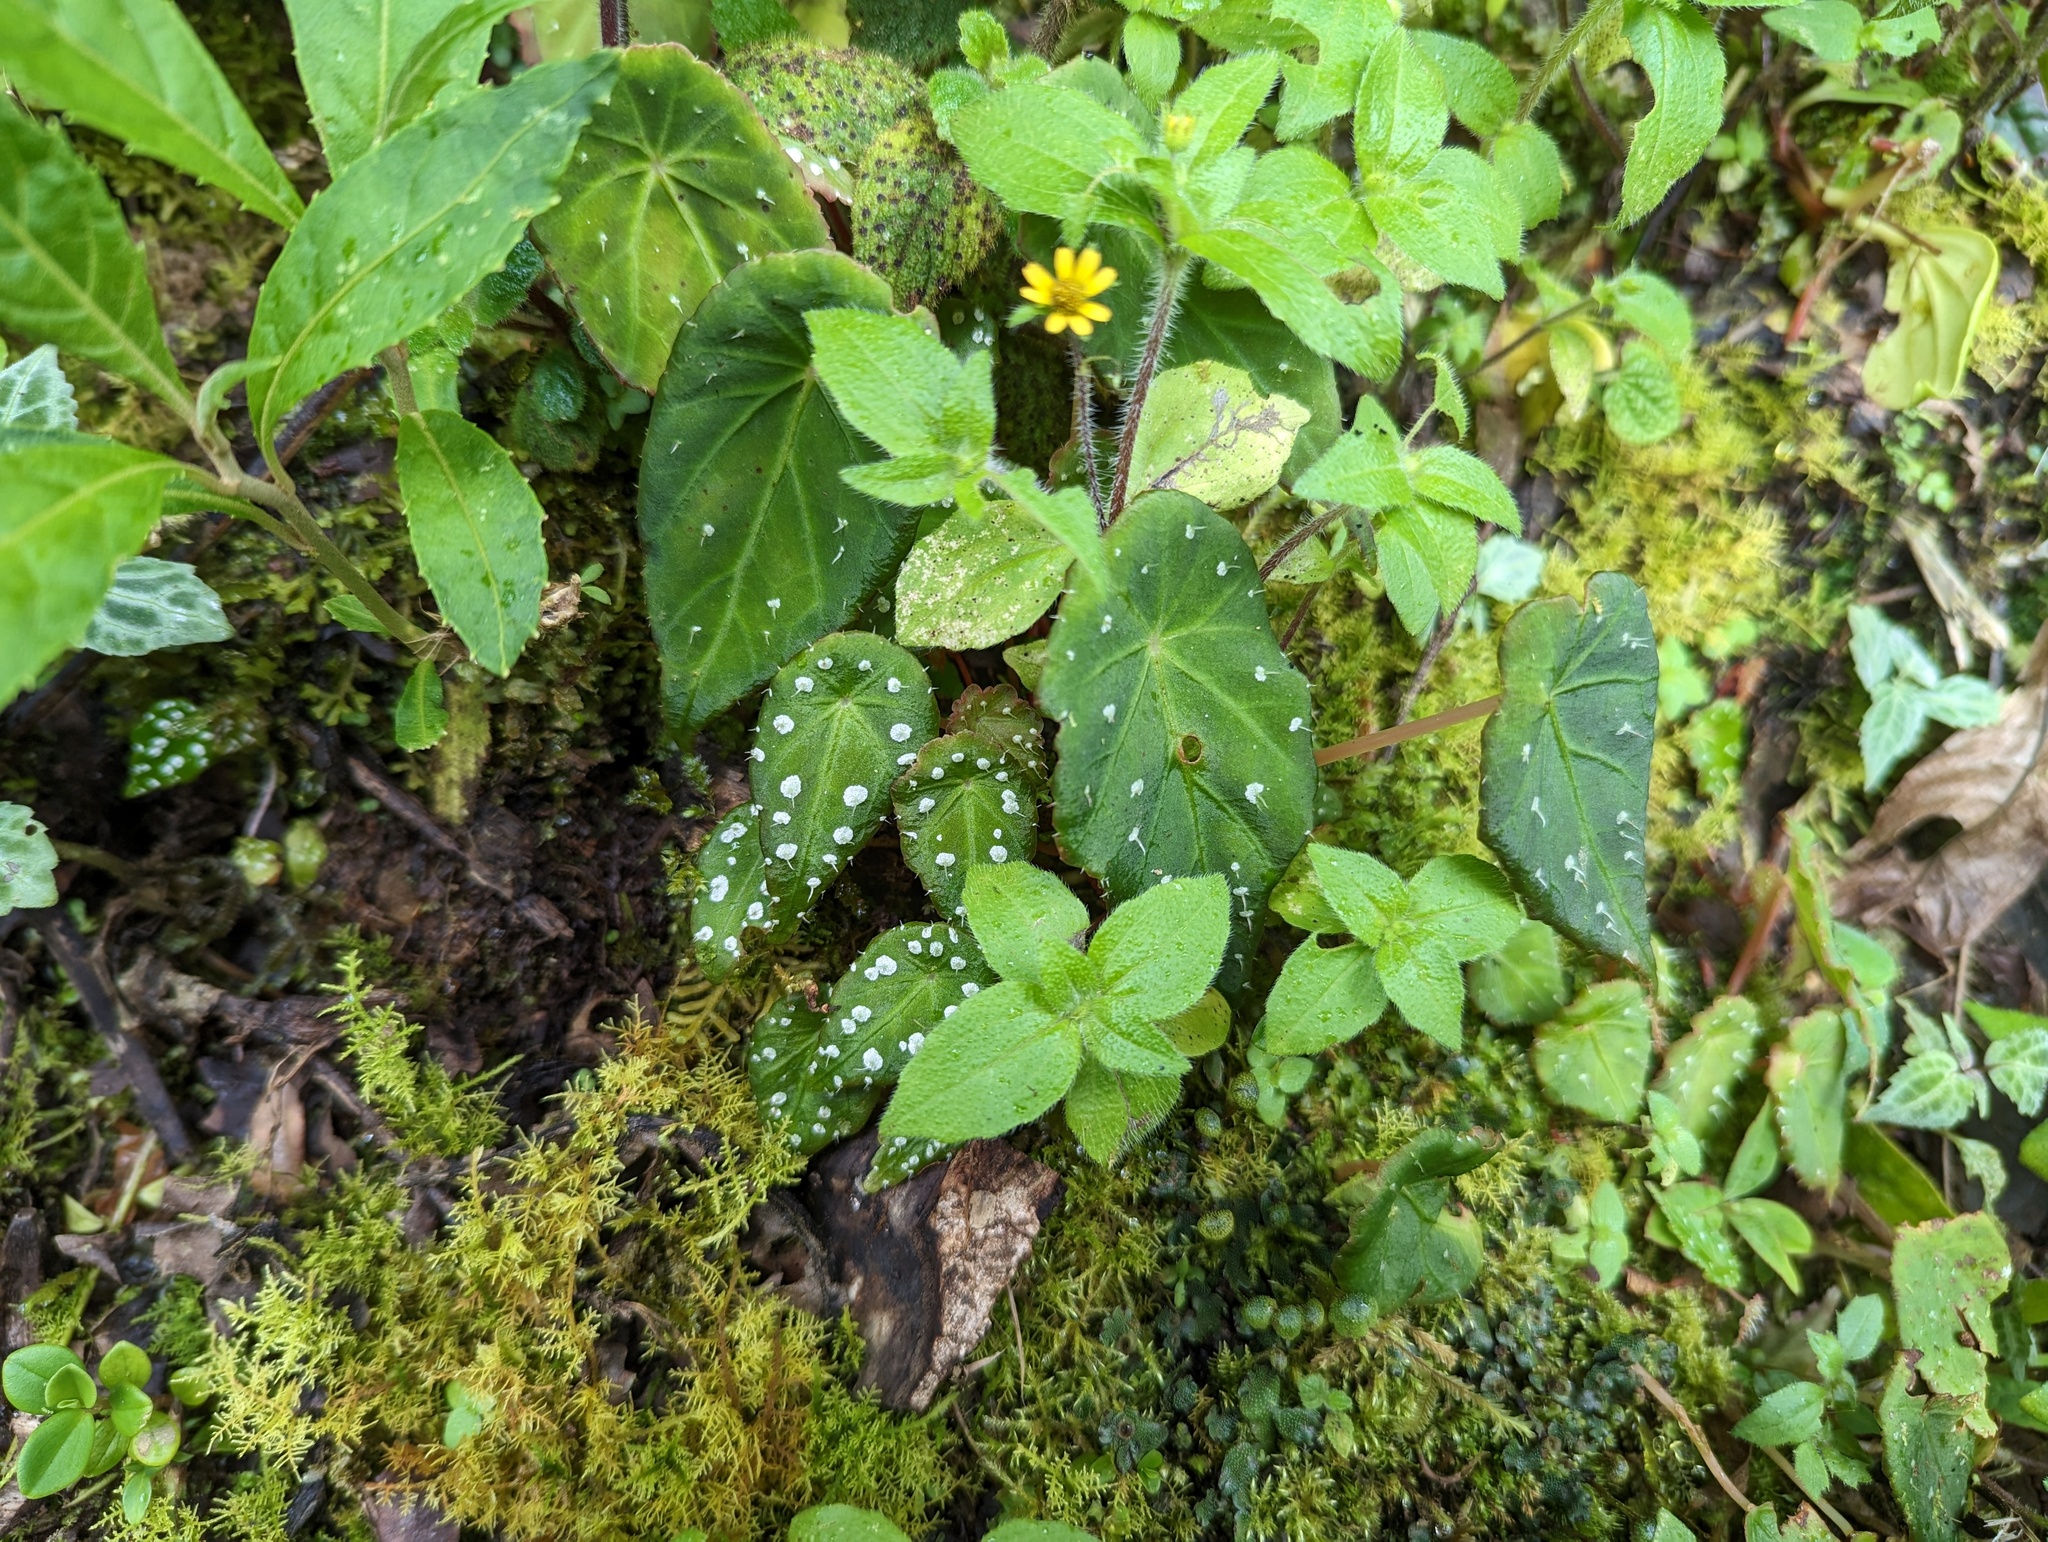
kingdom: Plantae
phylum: Tracheophyta
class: Magnoliopsida
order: Cucurbitales
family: Begoniaceae
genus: Begonia
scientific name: Begonia hitchcockii
